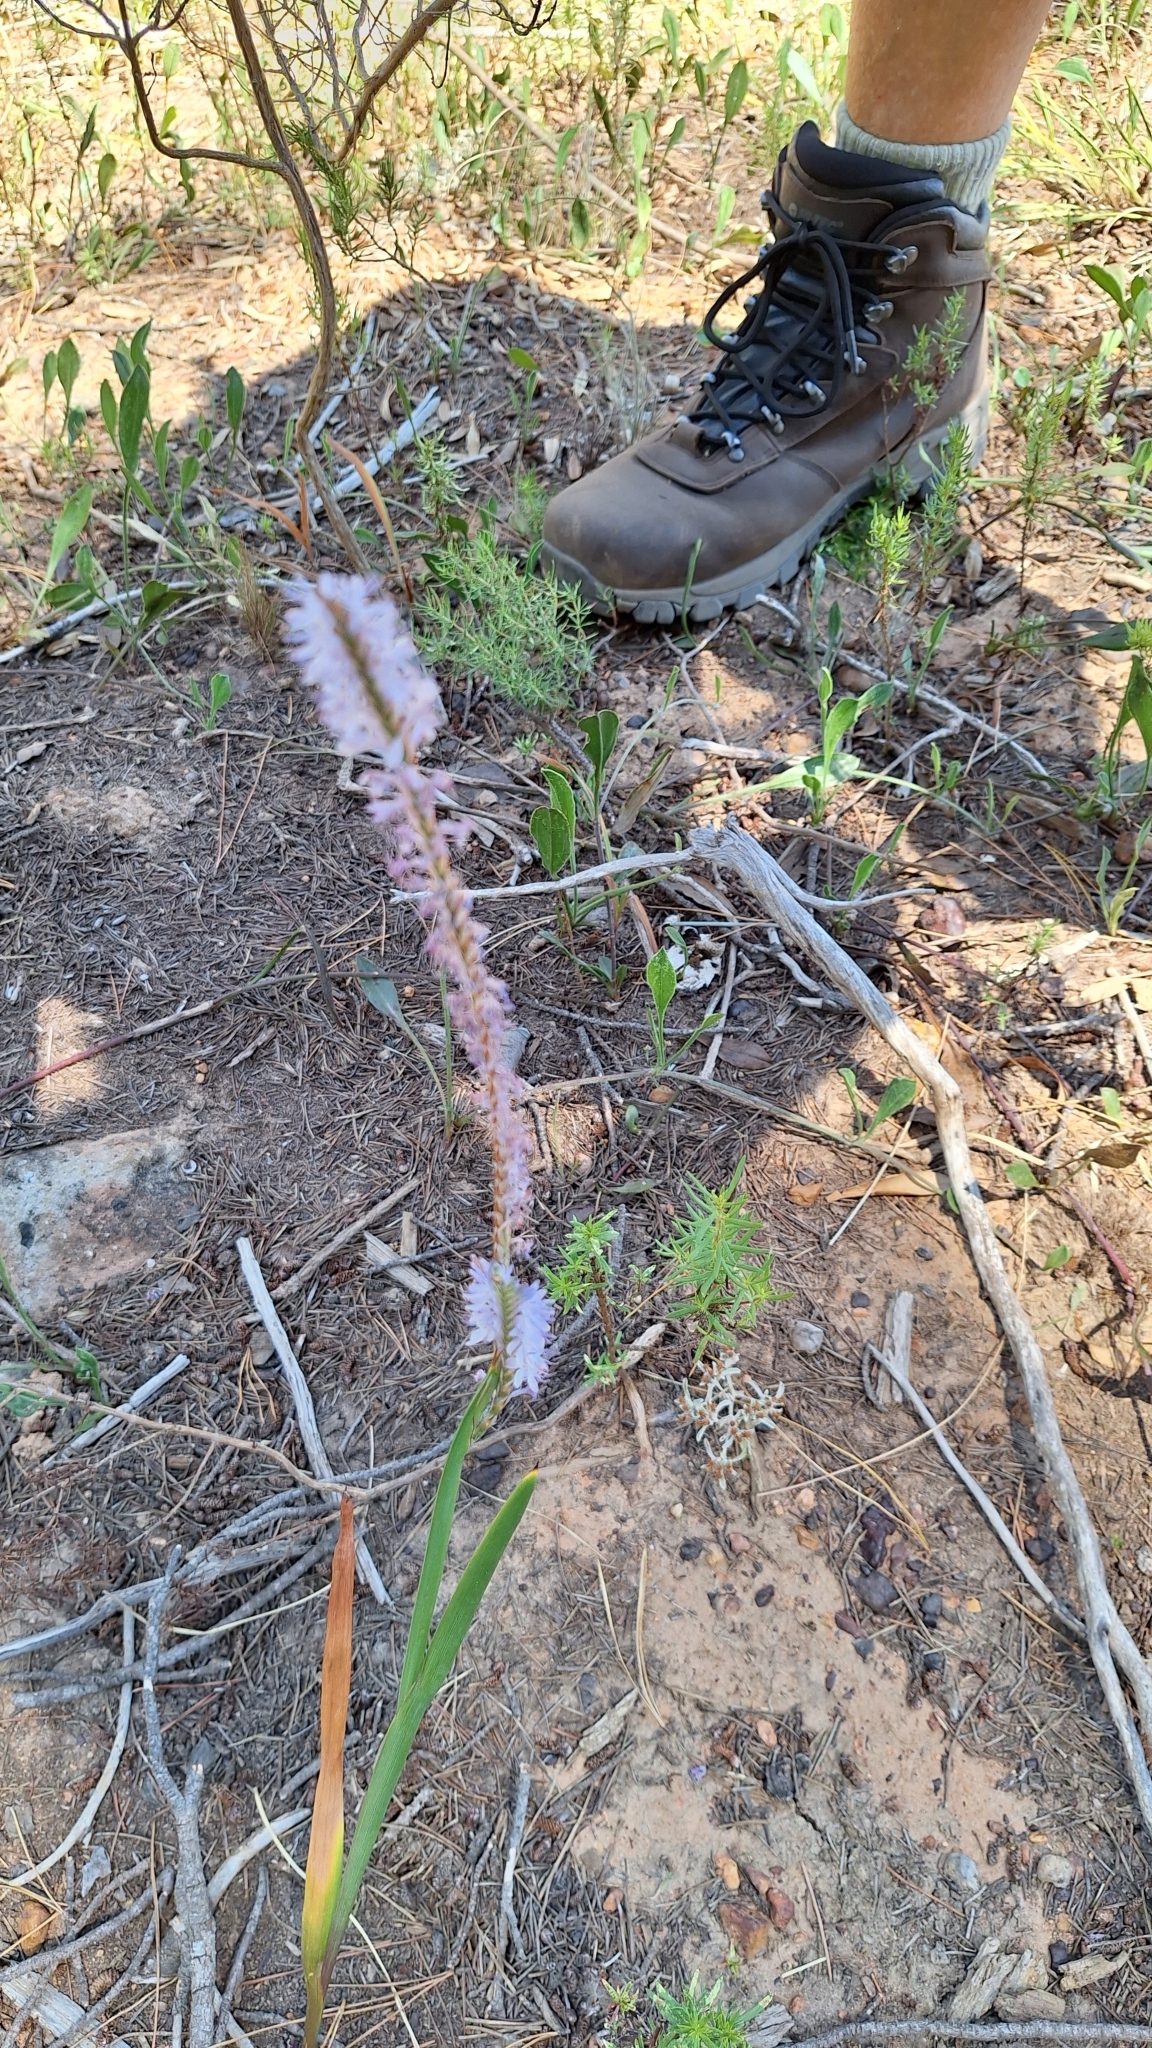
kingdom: Plantae
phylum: Tracheophyta
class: Liliopsida
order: Asparagales
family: Iridaceae
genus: Micranthus
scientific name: Micranthus tubulosus
